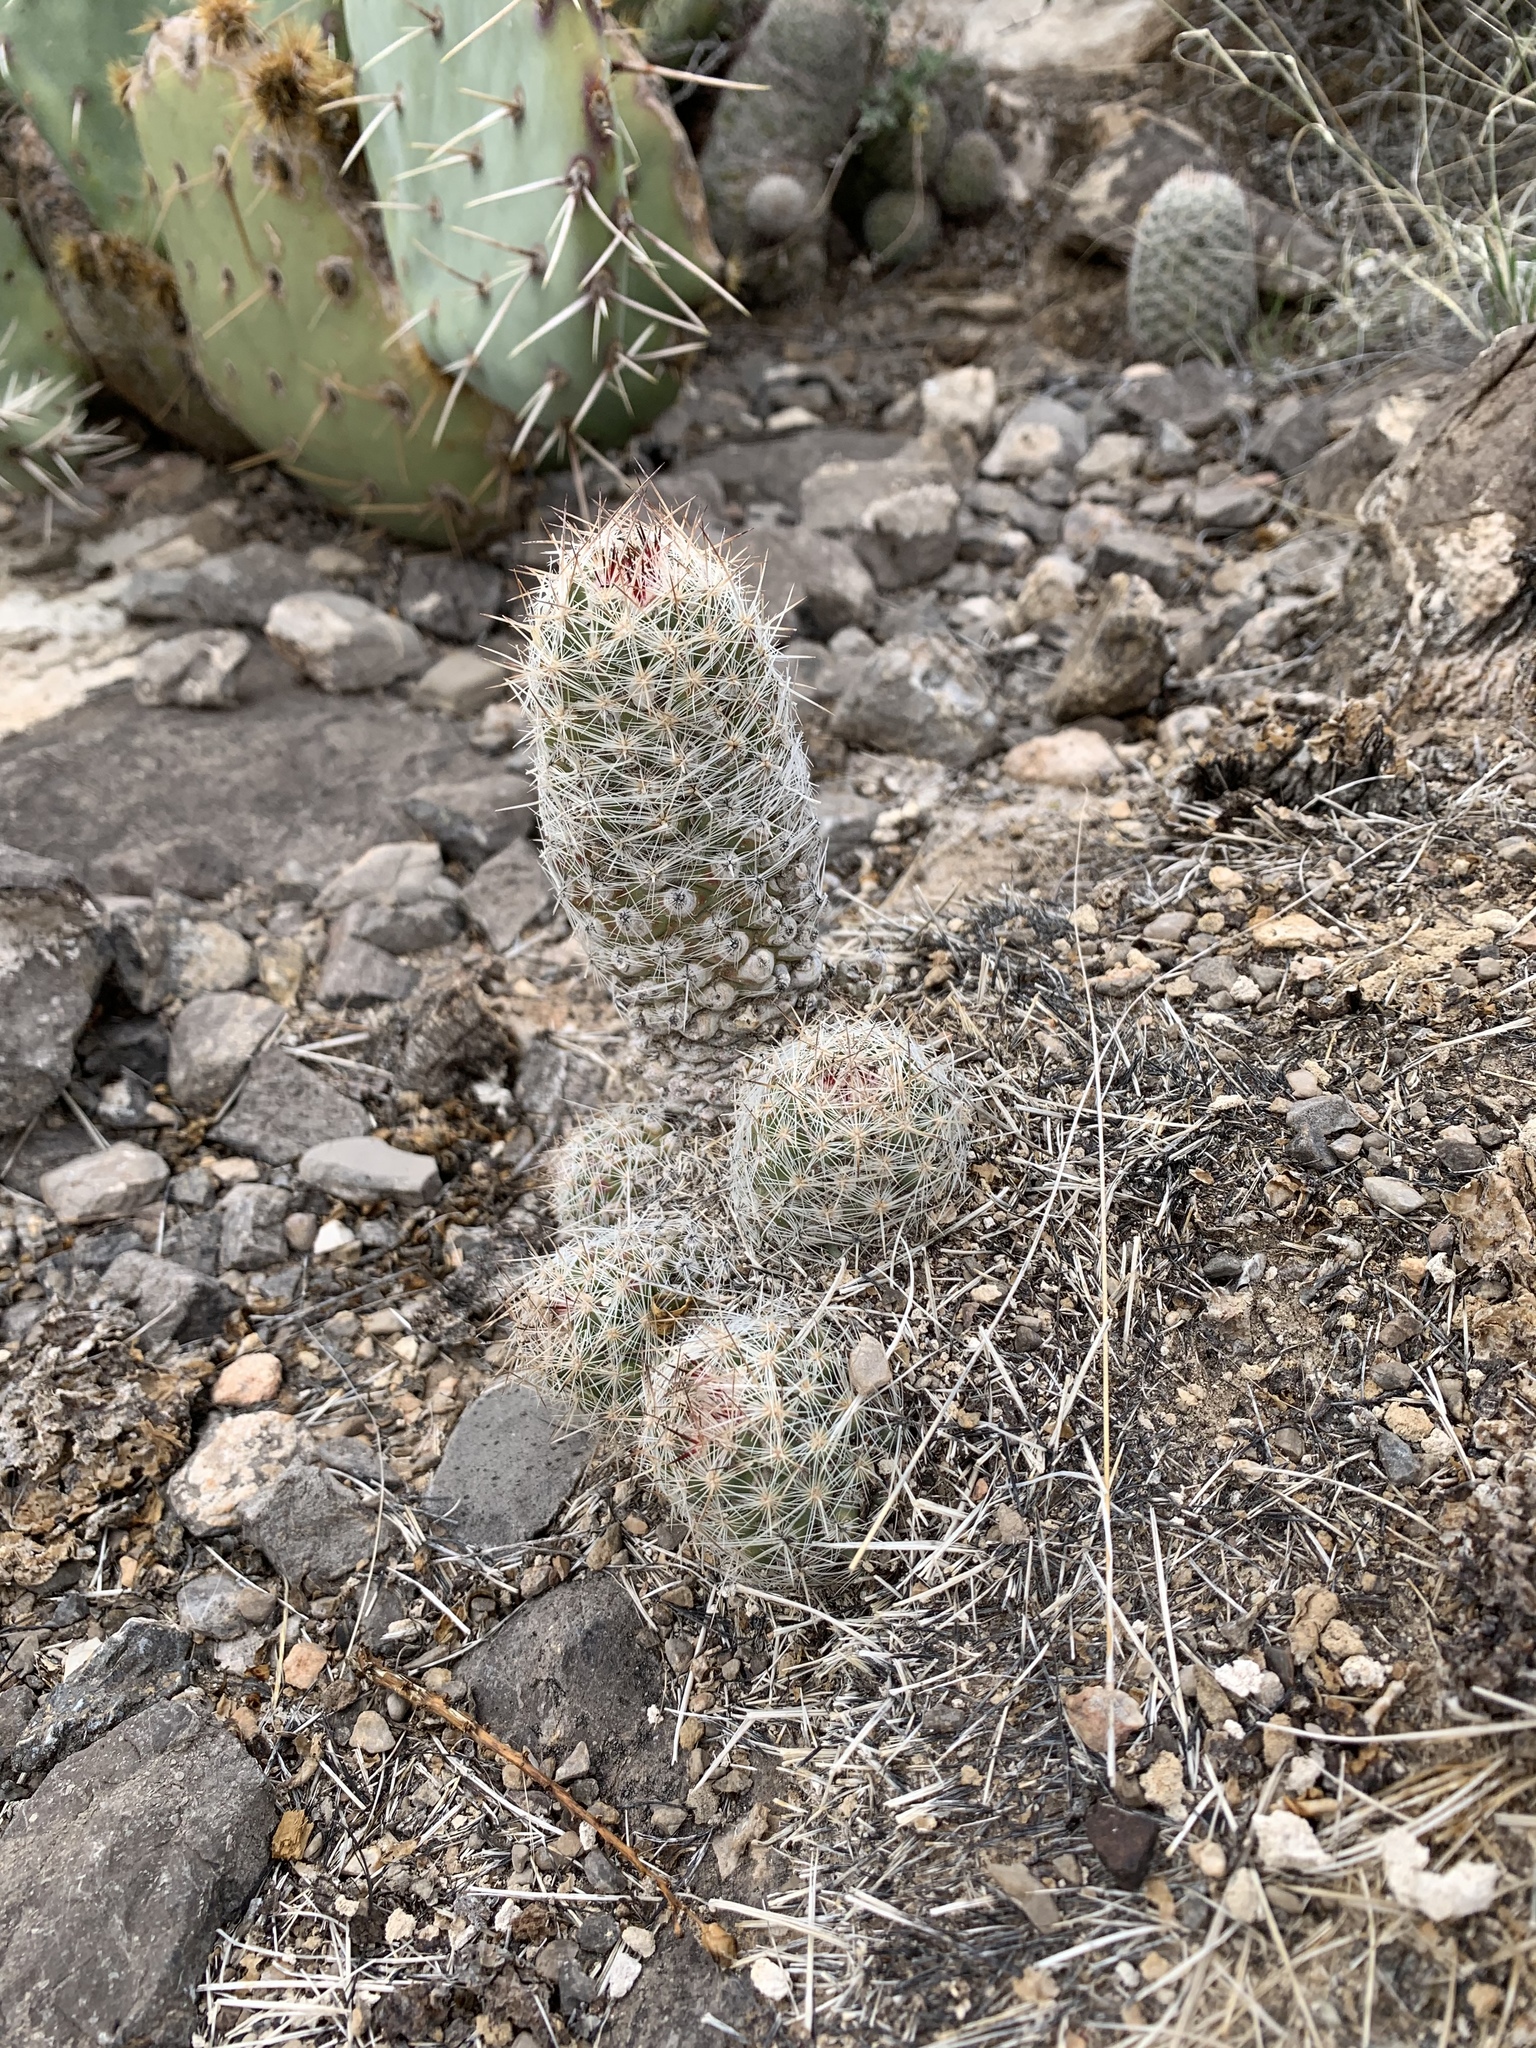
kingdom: Plantae
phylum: Tracheophyta
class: Magnoliopsida
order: Caryophyllales
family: Cactaceae
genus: Pelecyphora
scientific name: Pelecyphora tuberculosa
